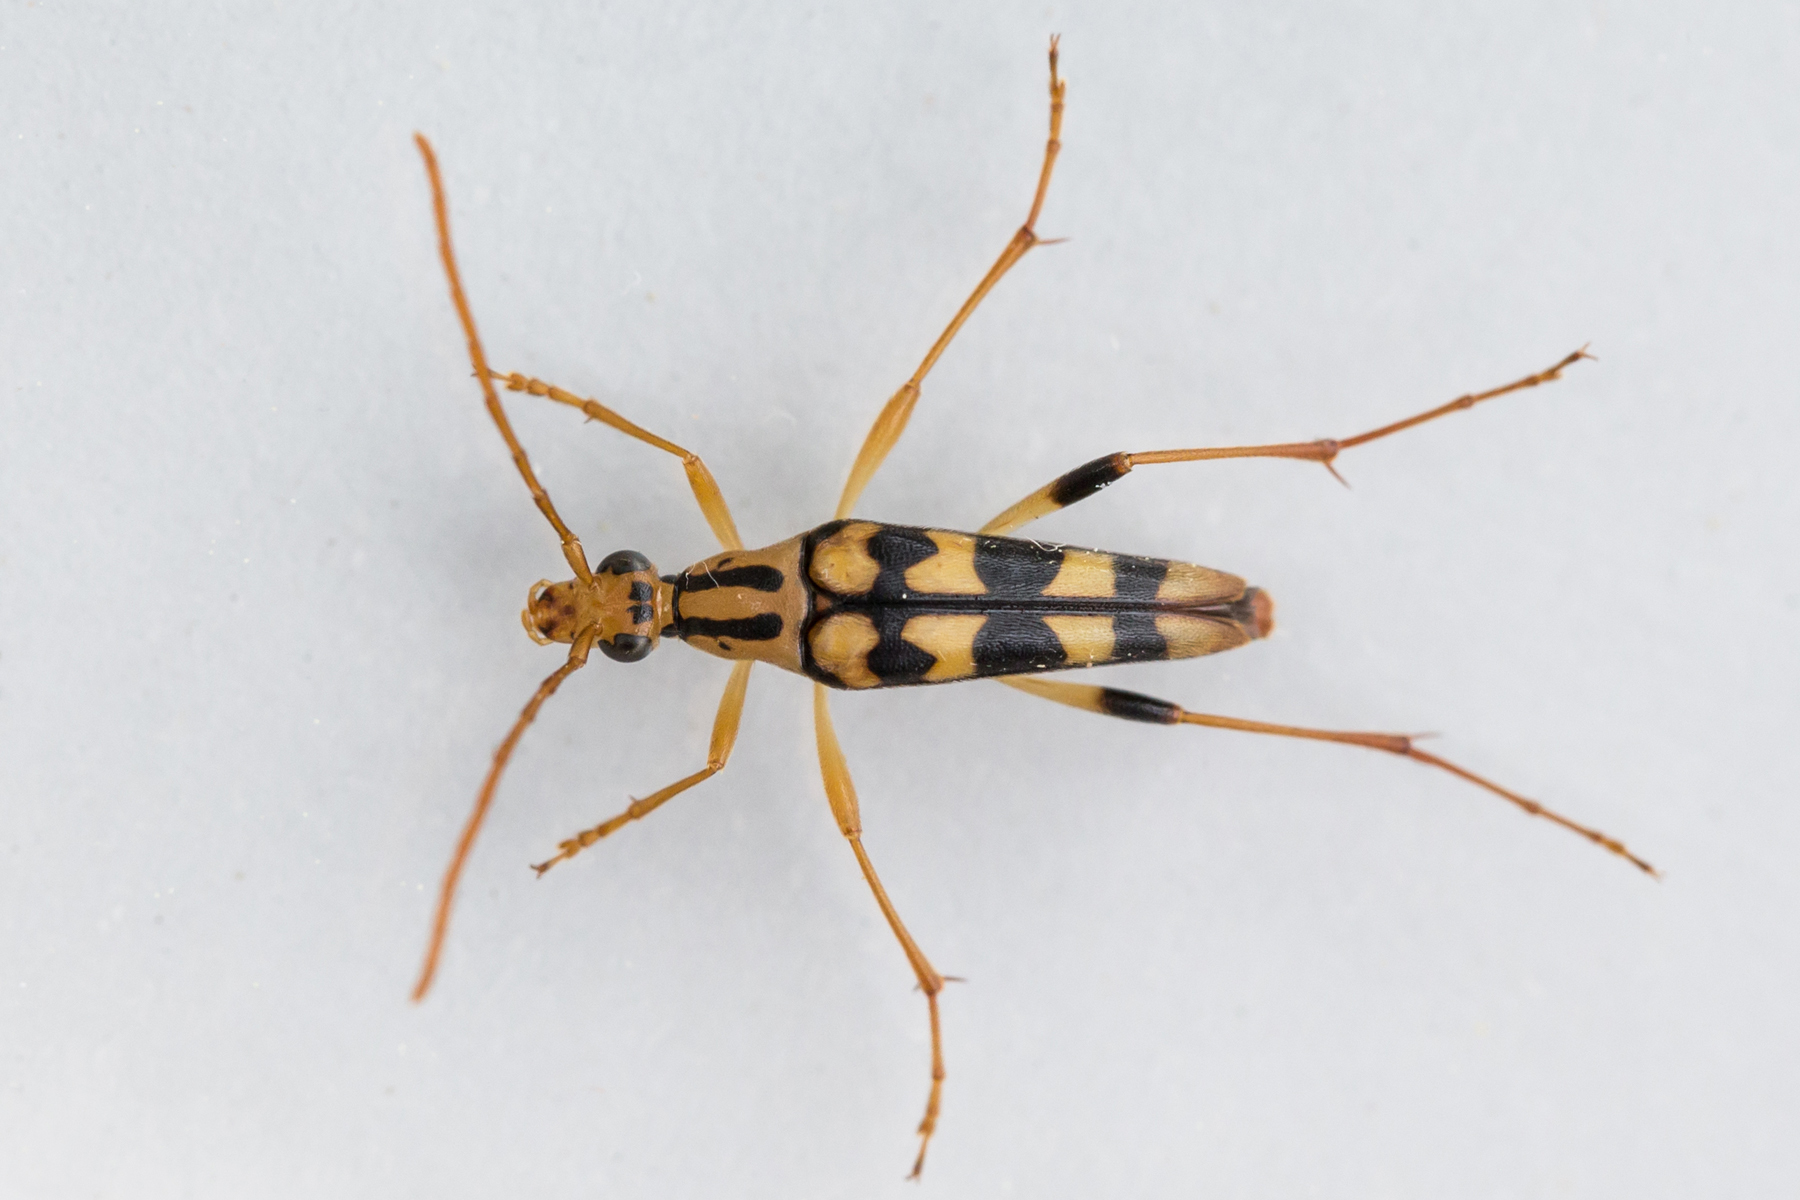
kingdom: Animalia
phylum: Arthropoda
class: Insecta
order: Coleoptera
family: Cerambycidae
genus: Strangalia
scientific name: Strangalia luteicornis
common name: Yellow-horned flower longhorn beetle
